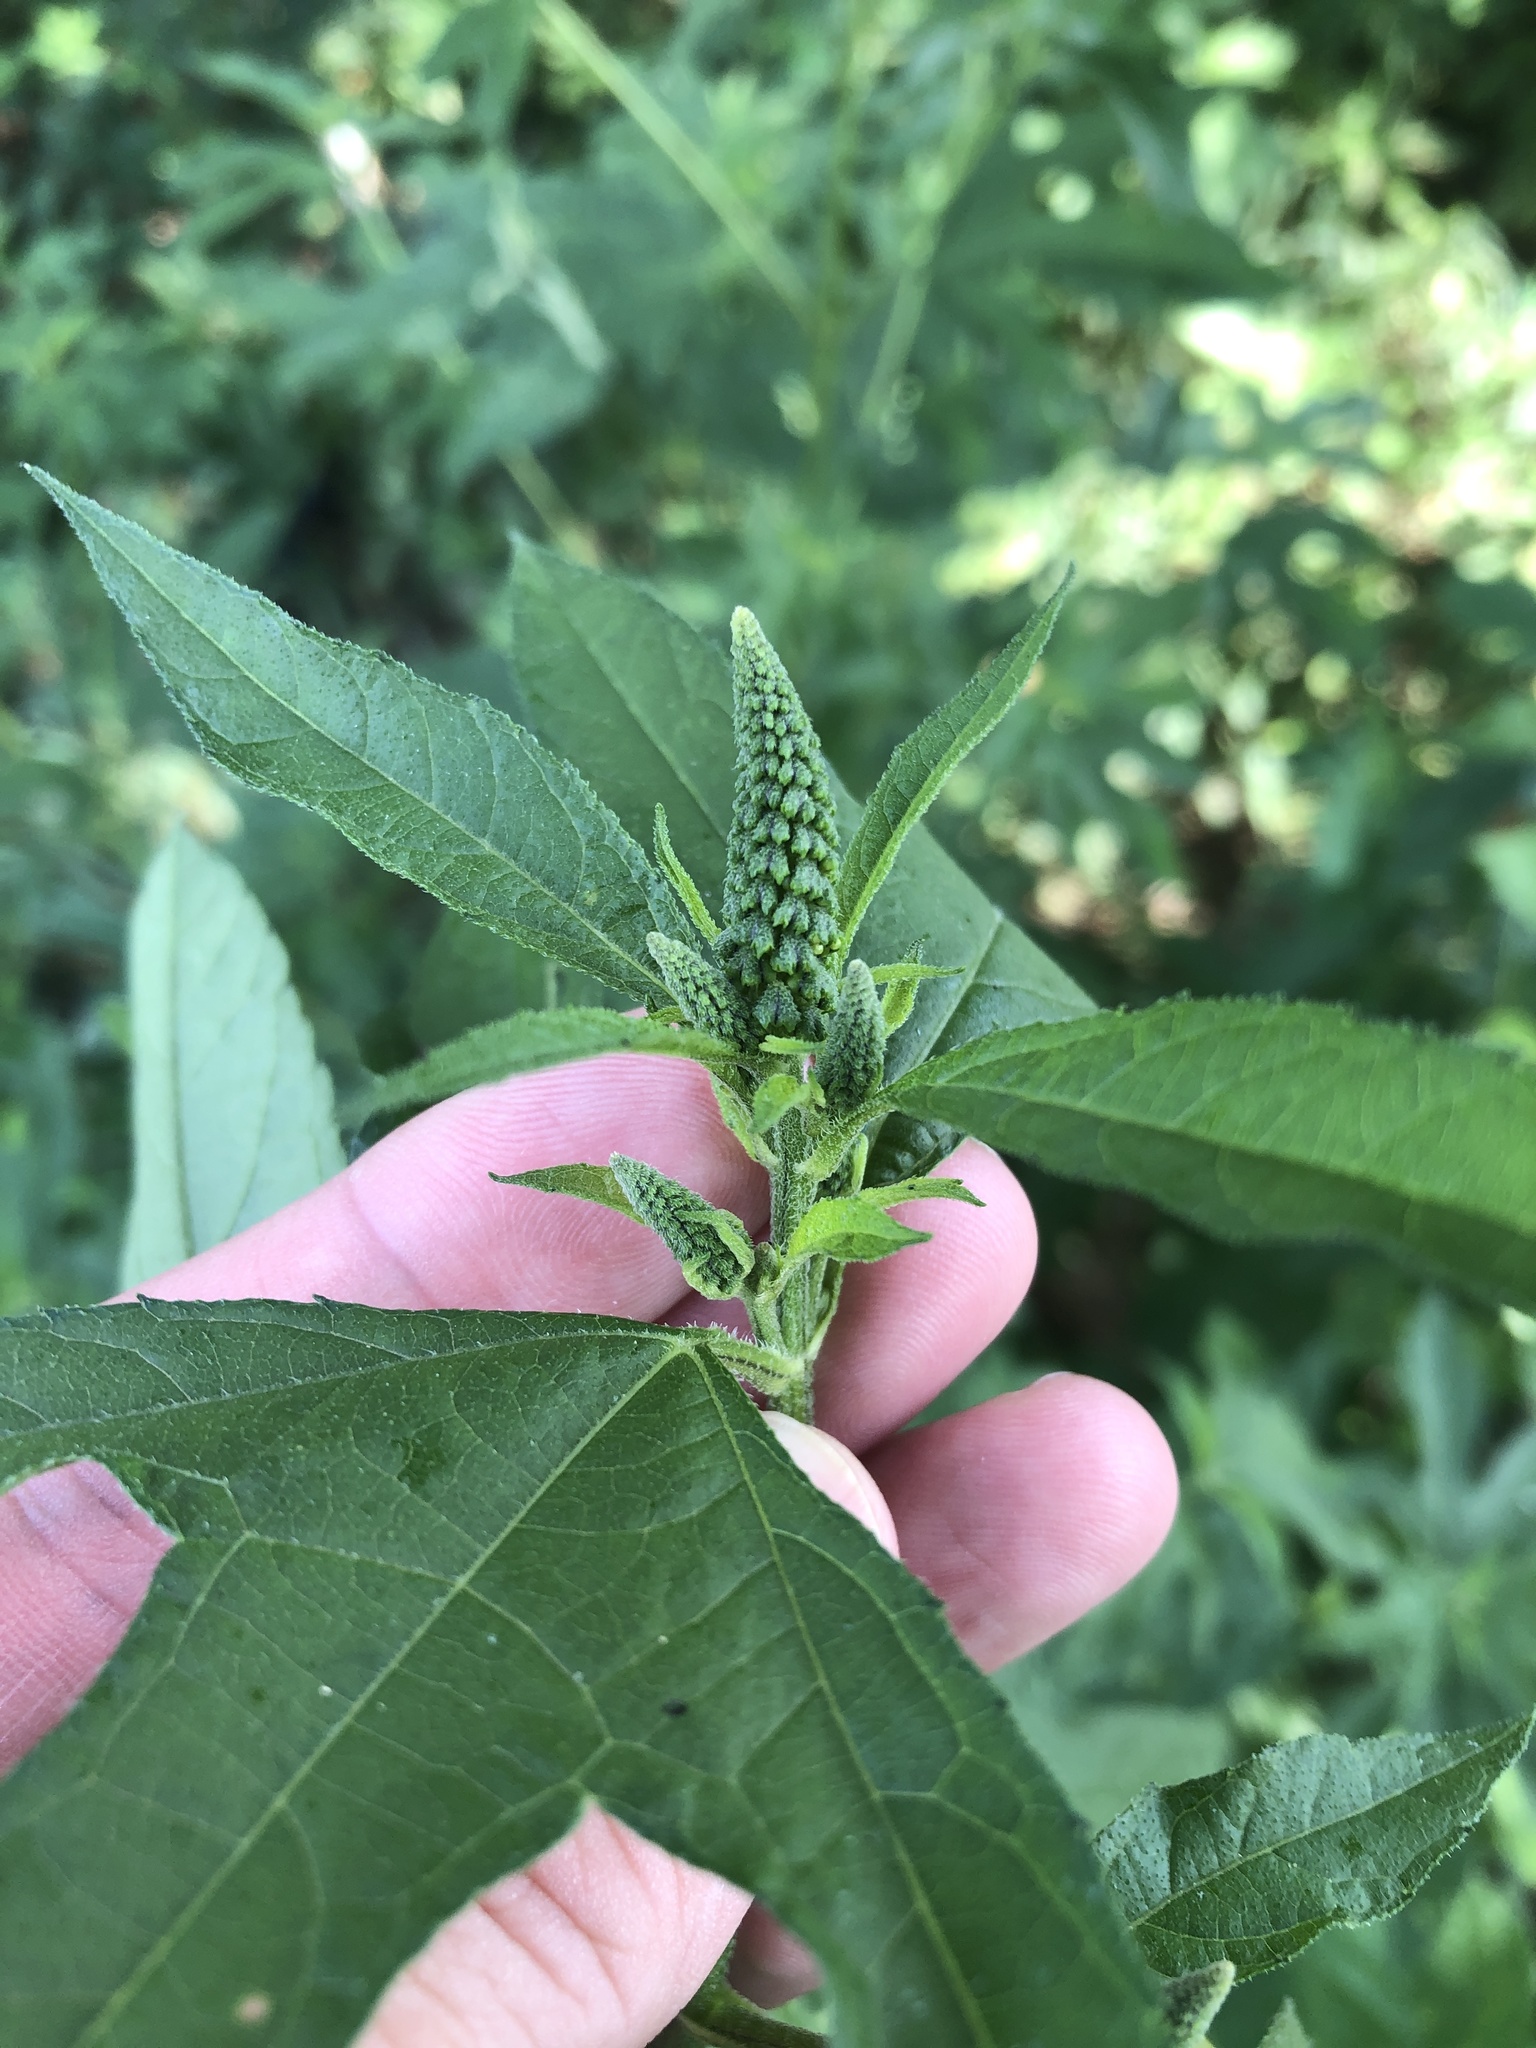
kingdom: Plantae
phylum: Tracheophyta
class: Magnoliopsida
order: Asterales
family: Asteraceae
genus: Ambrosia
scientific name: Ambrosia trifida
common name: Giant ragweed
